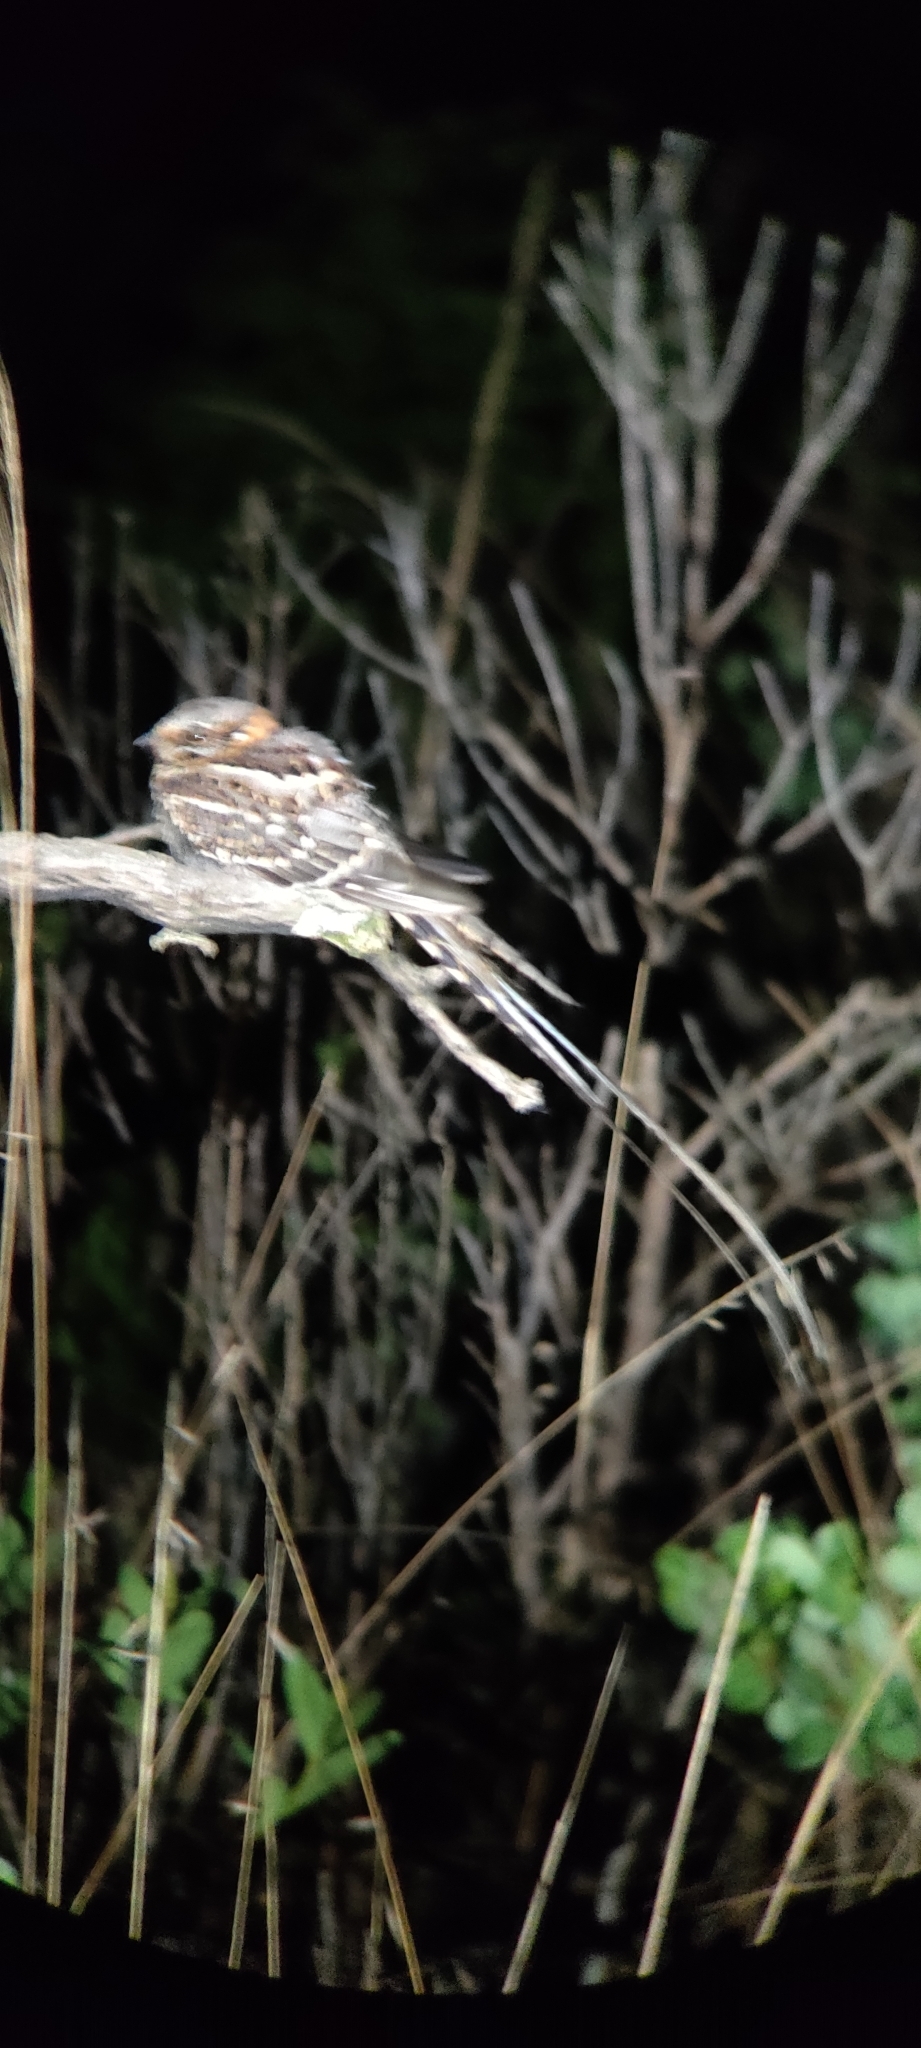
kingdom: Animalia
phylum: Chordata
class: Aves
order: Caprimulgiformes
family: Caprimulgidae
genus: Hydropsalis
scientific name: Hydropsalis torquata
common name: Scissor-tailed nightjar
